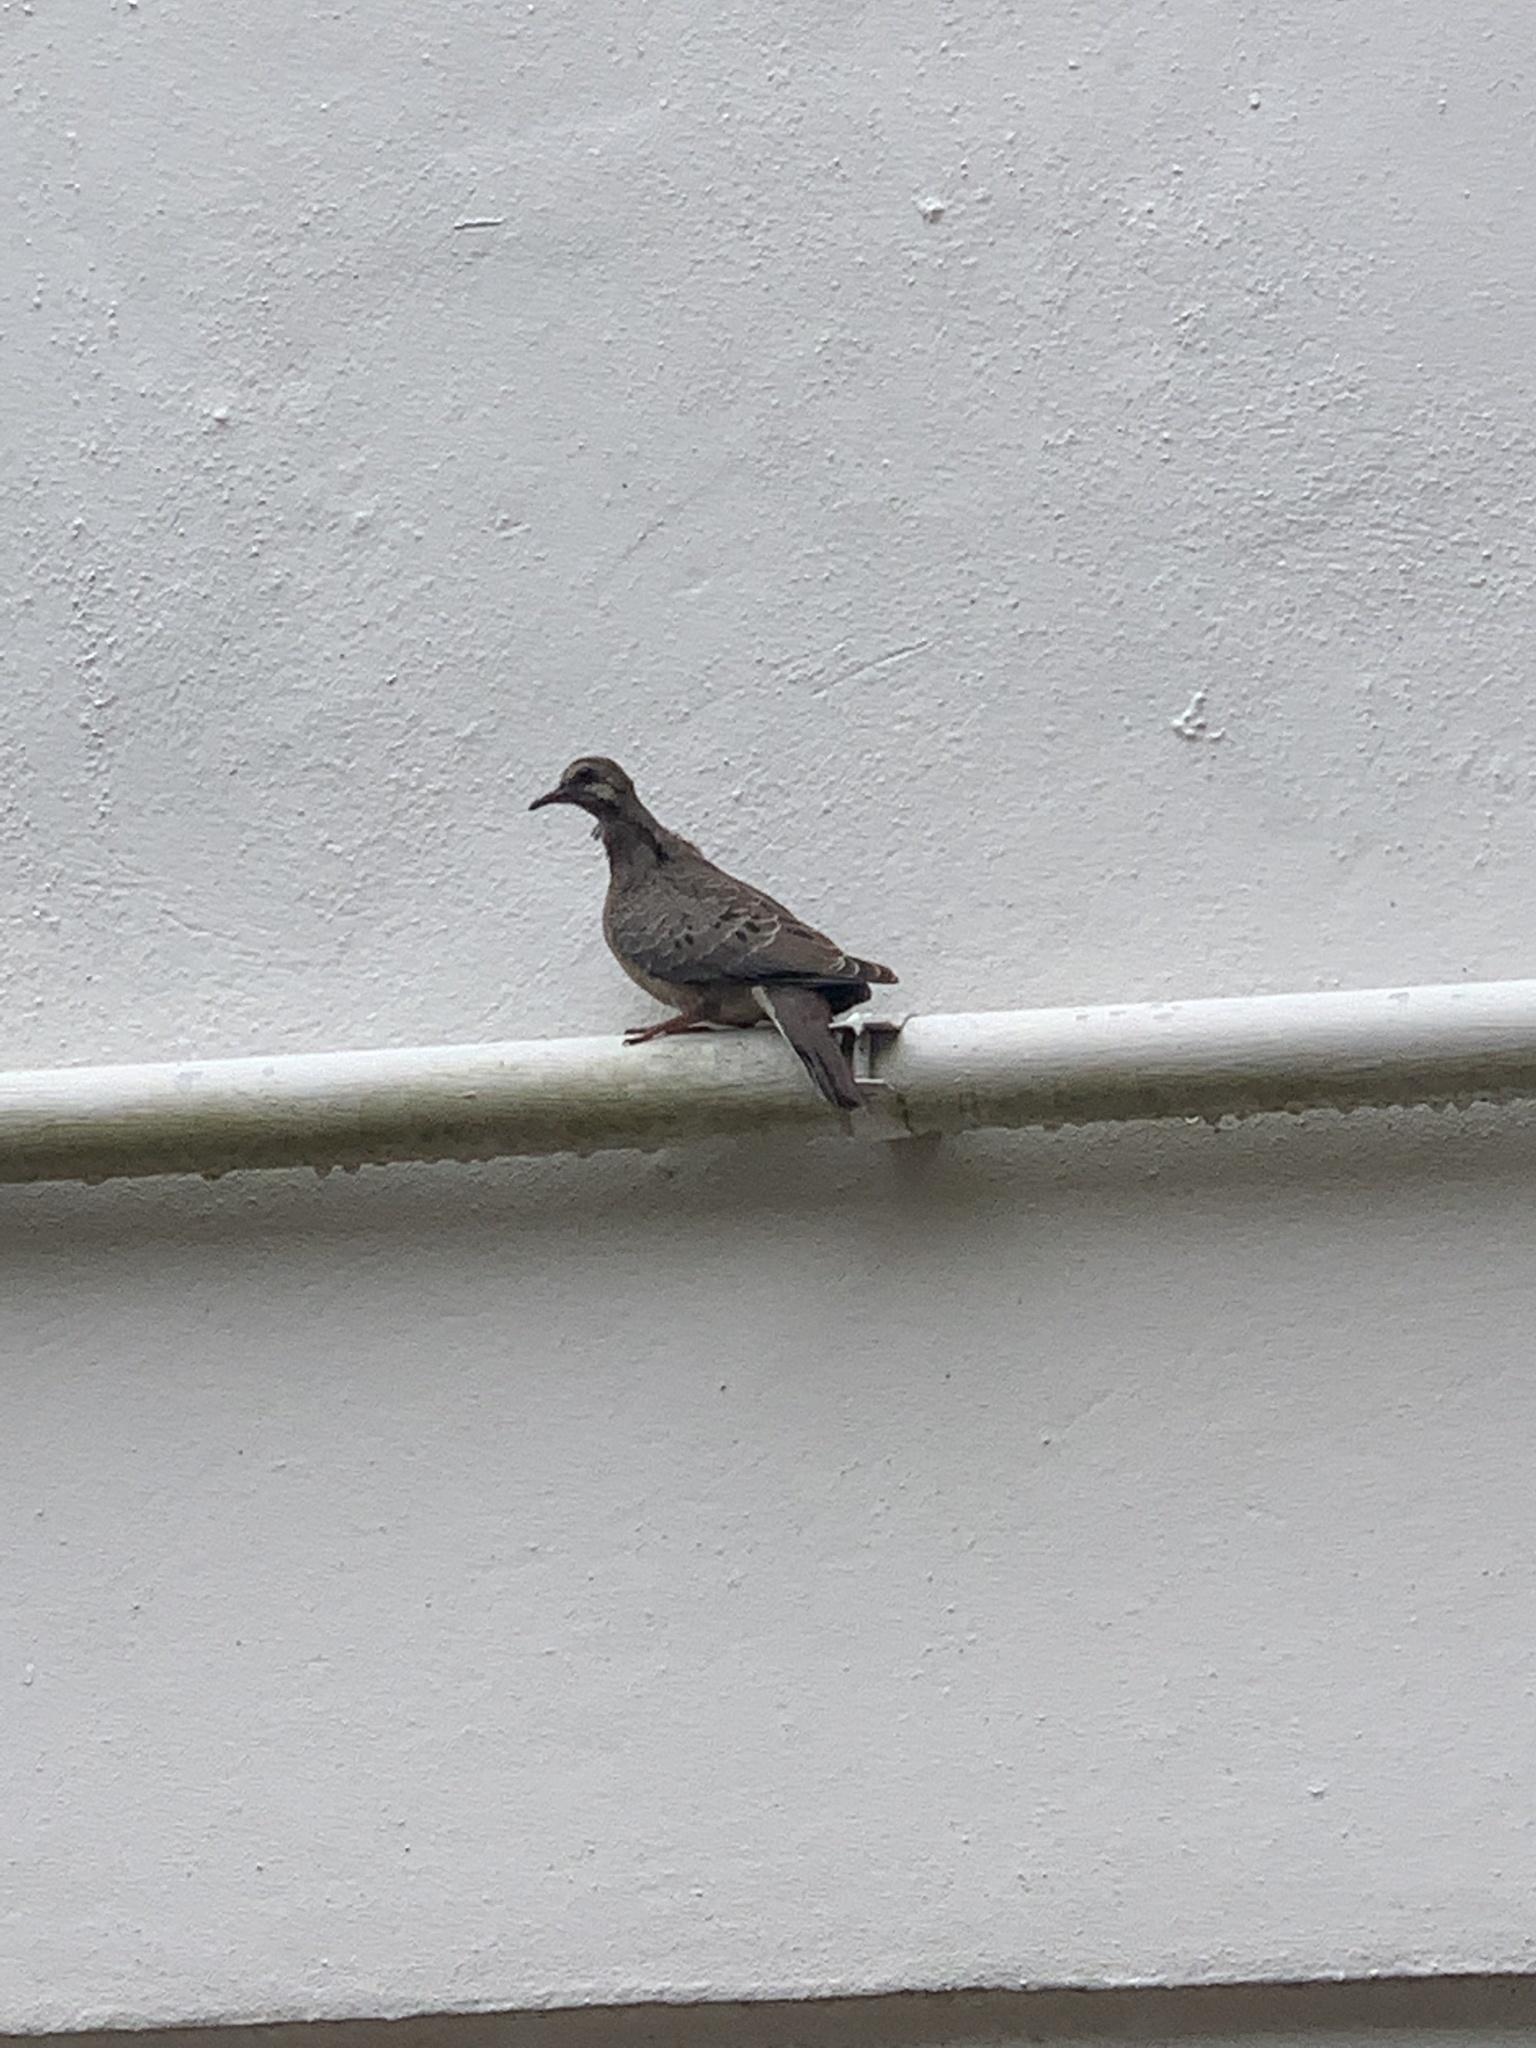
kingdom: Animalia
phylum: Chordata
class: Aves
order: Columbiformes
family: Columbidae
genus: Zenaida
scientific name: Zenaida macroura
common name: Mourning dove
